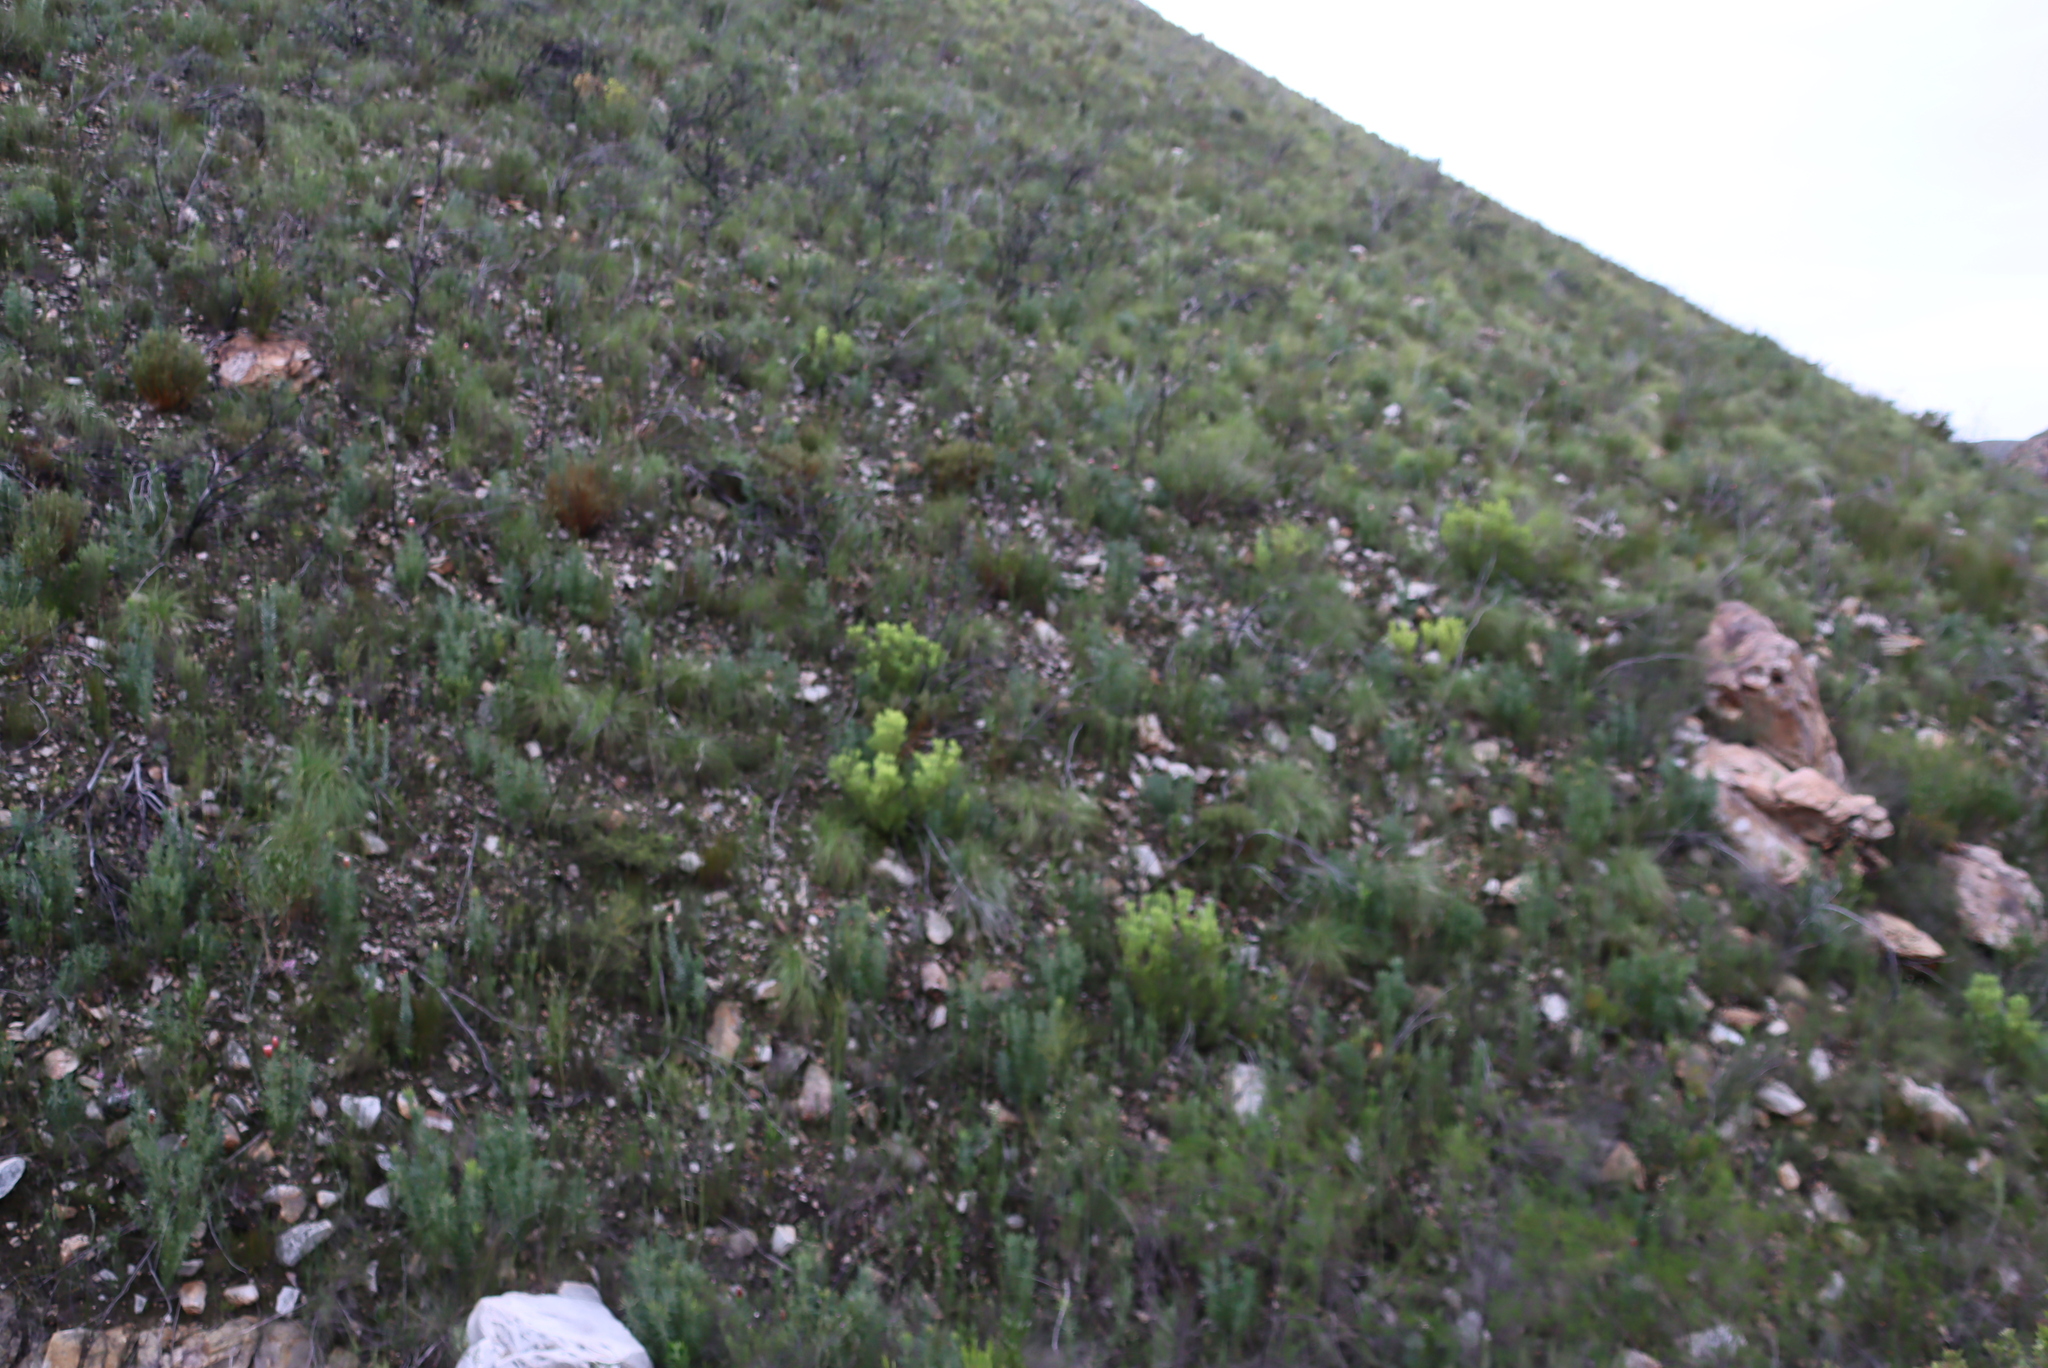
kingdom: Plantae
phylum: Tracheophyta
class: Magnoliopsida
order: Proteales
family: Proteaceae
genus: Leucadendron
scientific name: Leucadendron salignum
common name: Common sunshine conebush
